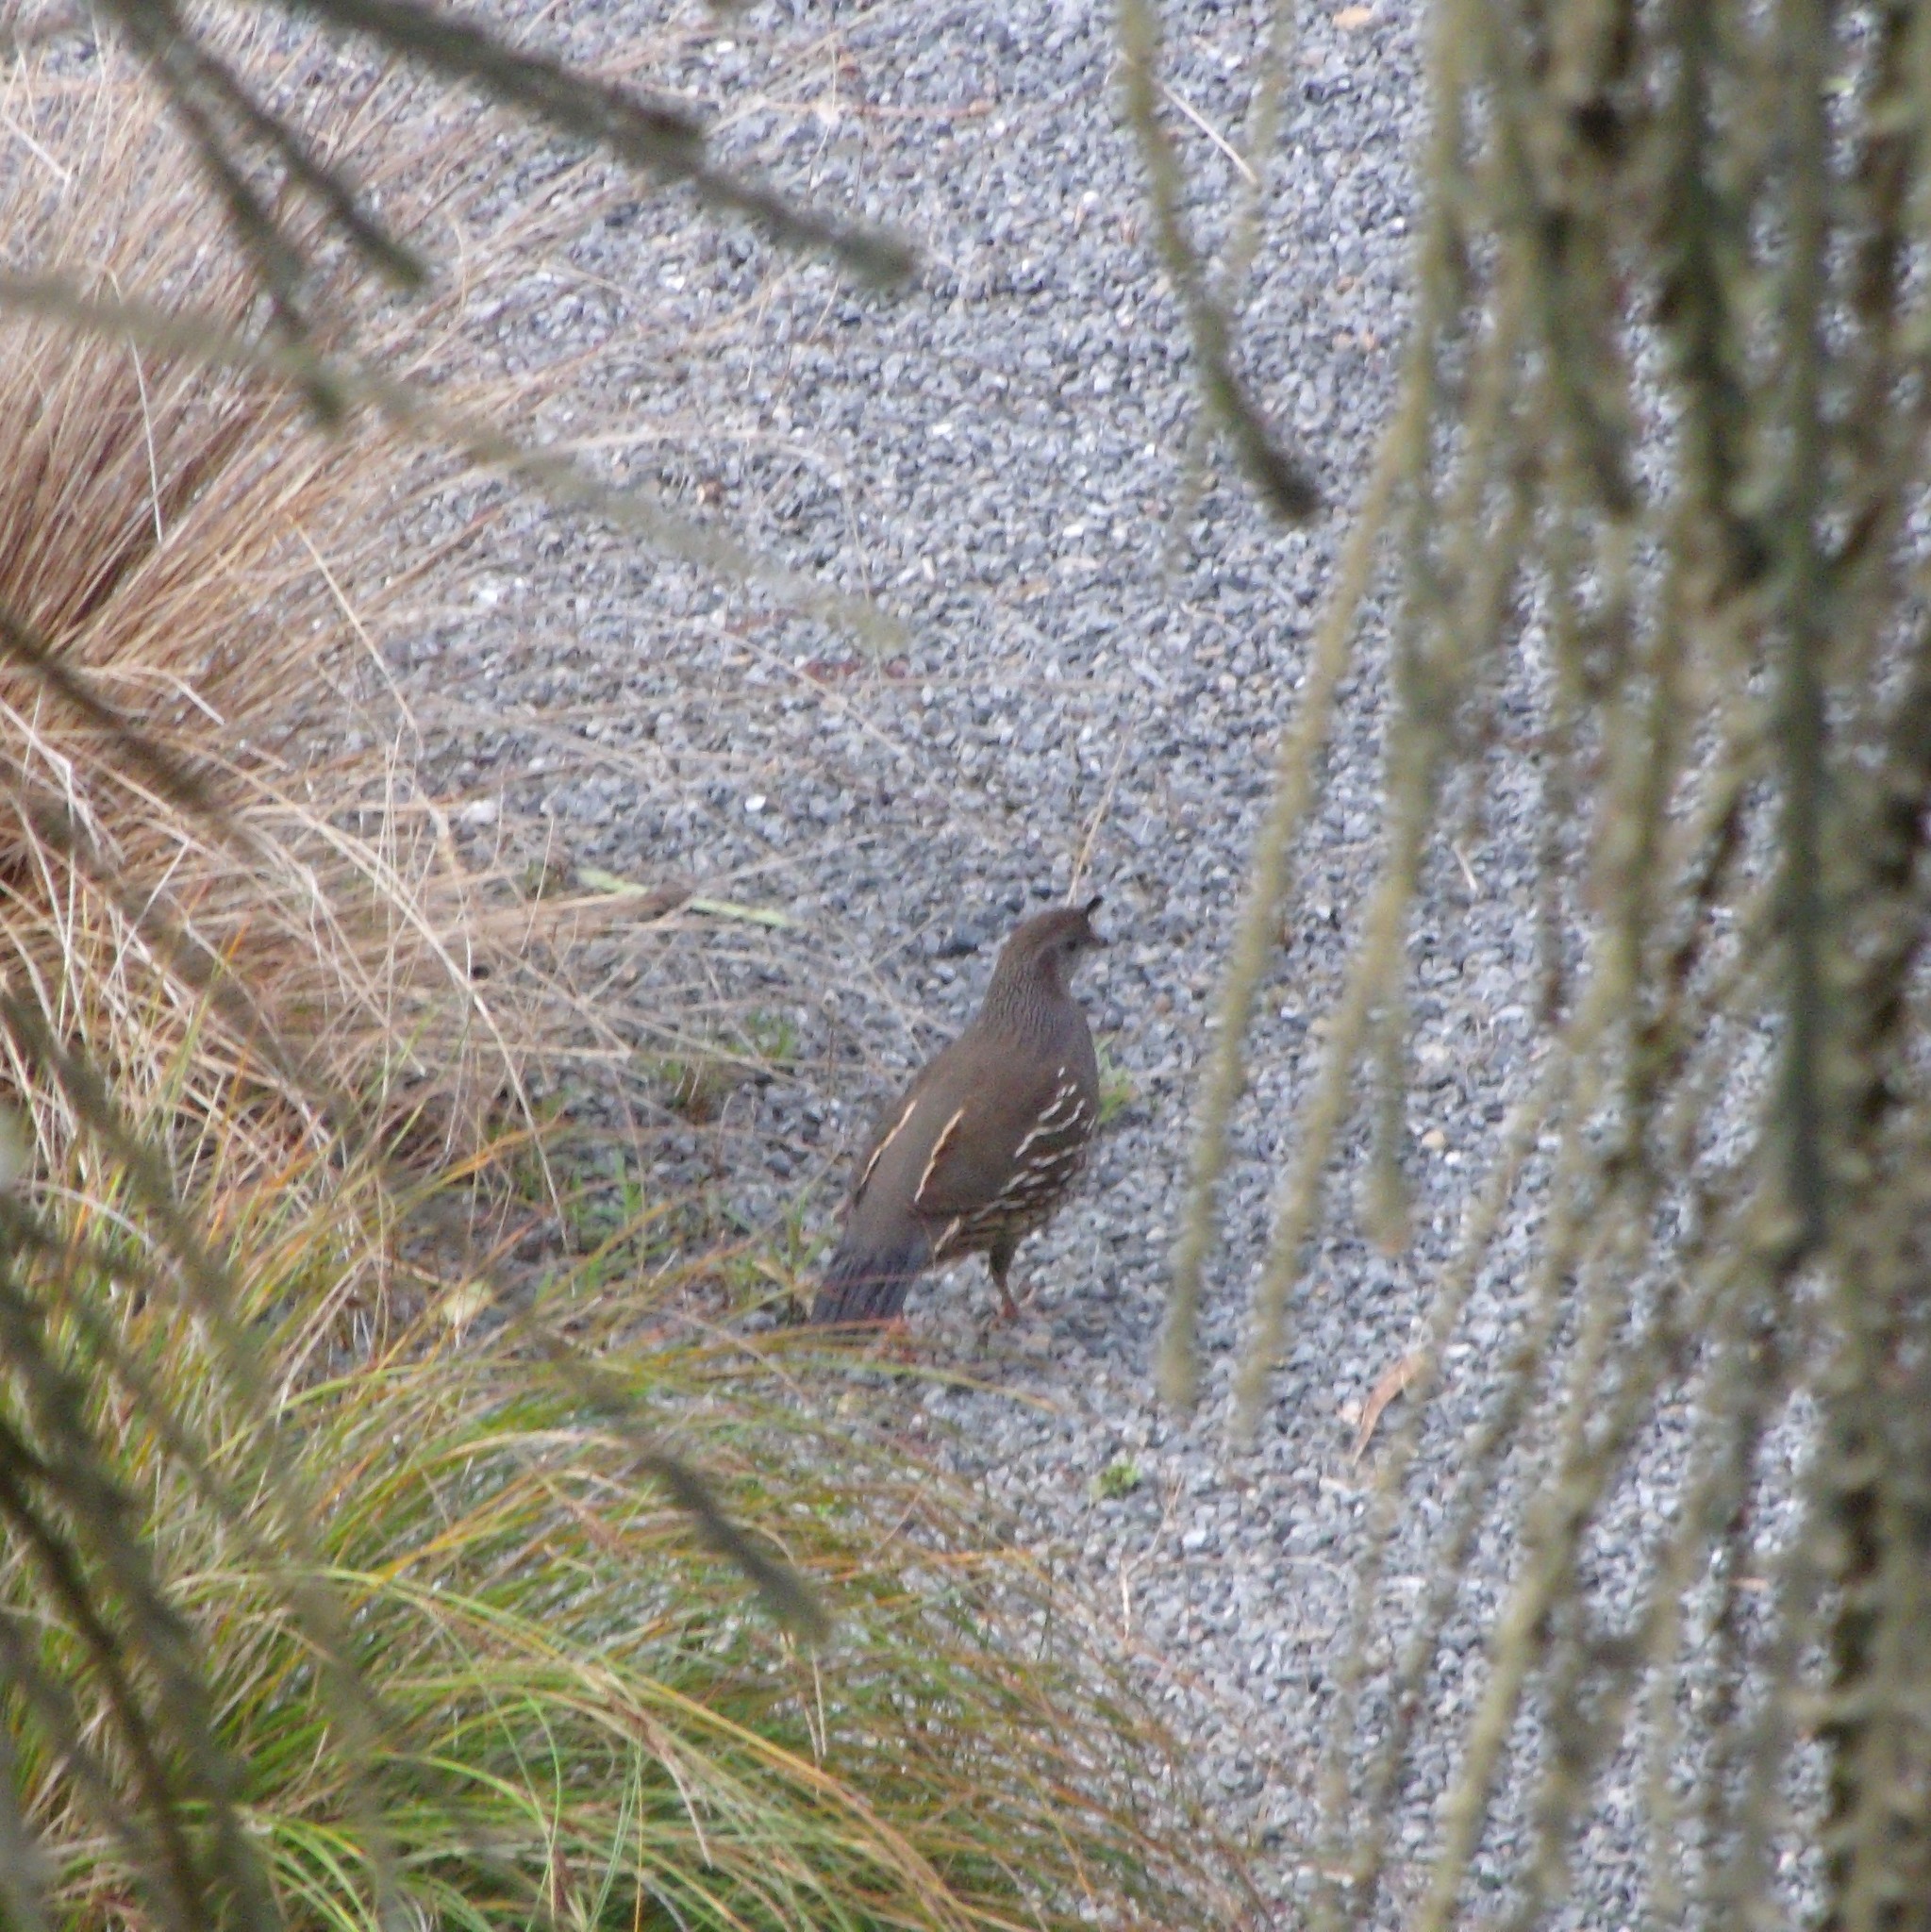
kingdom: Animalia
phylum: Chordata
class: Aves
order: Galliformes
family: Odontophoridae
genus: Callipepla
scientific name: Callipepla californica
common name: California quail
